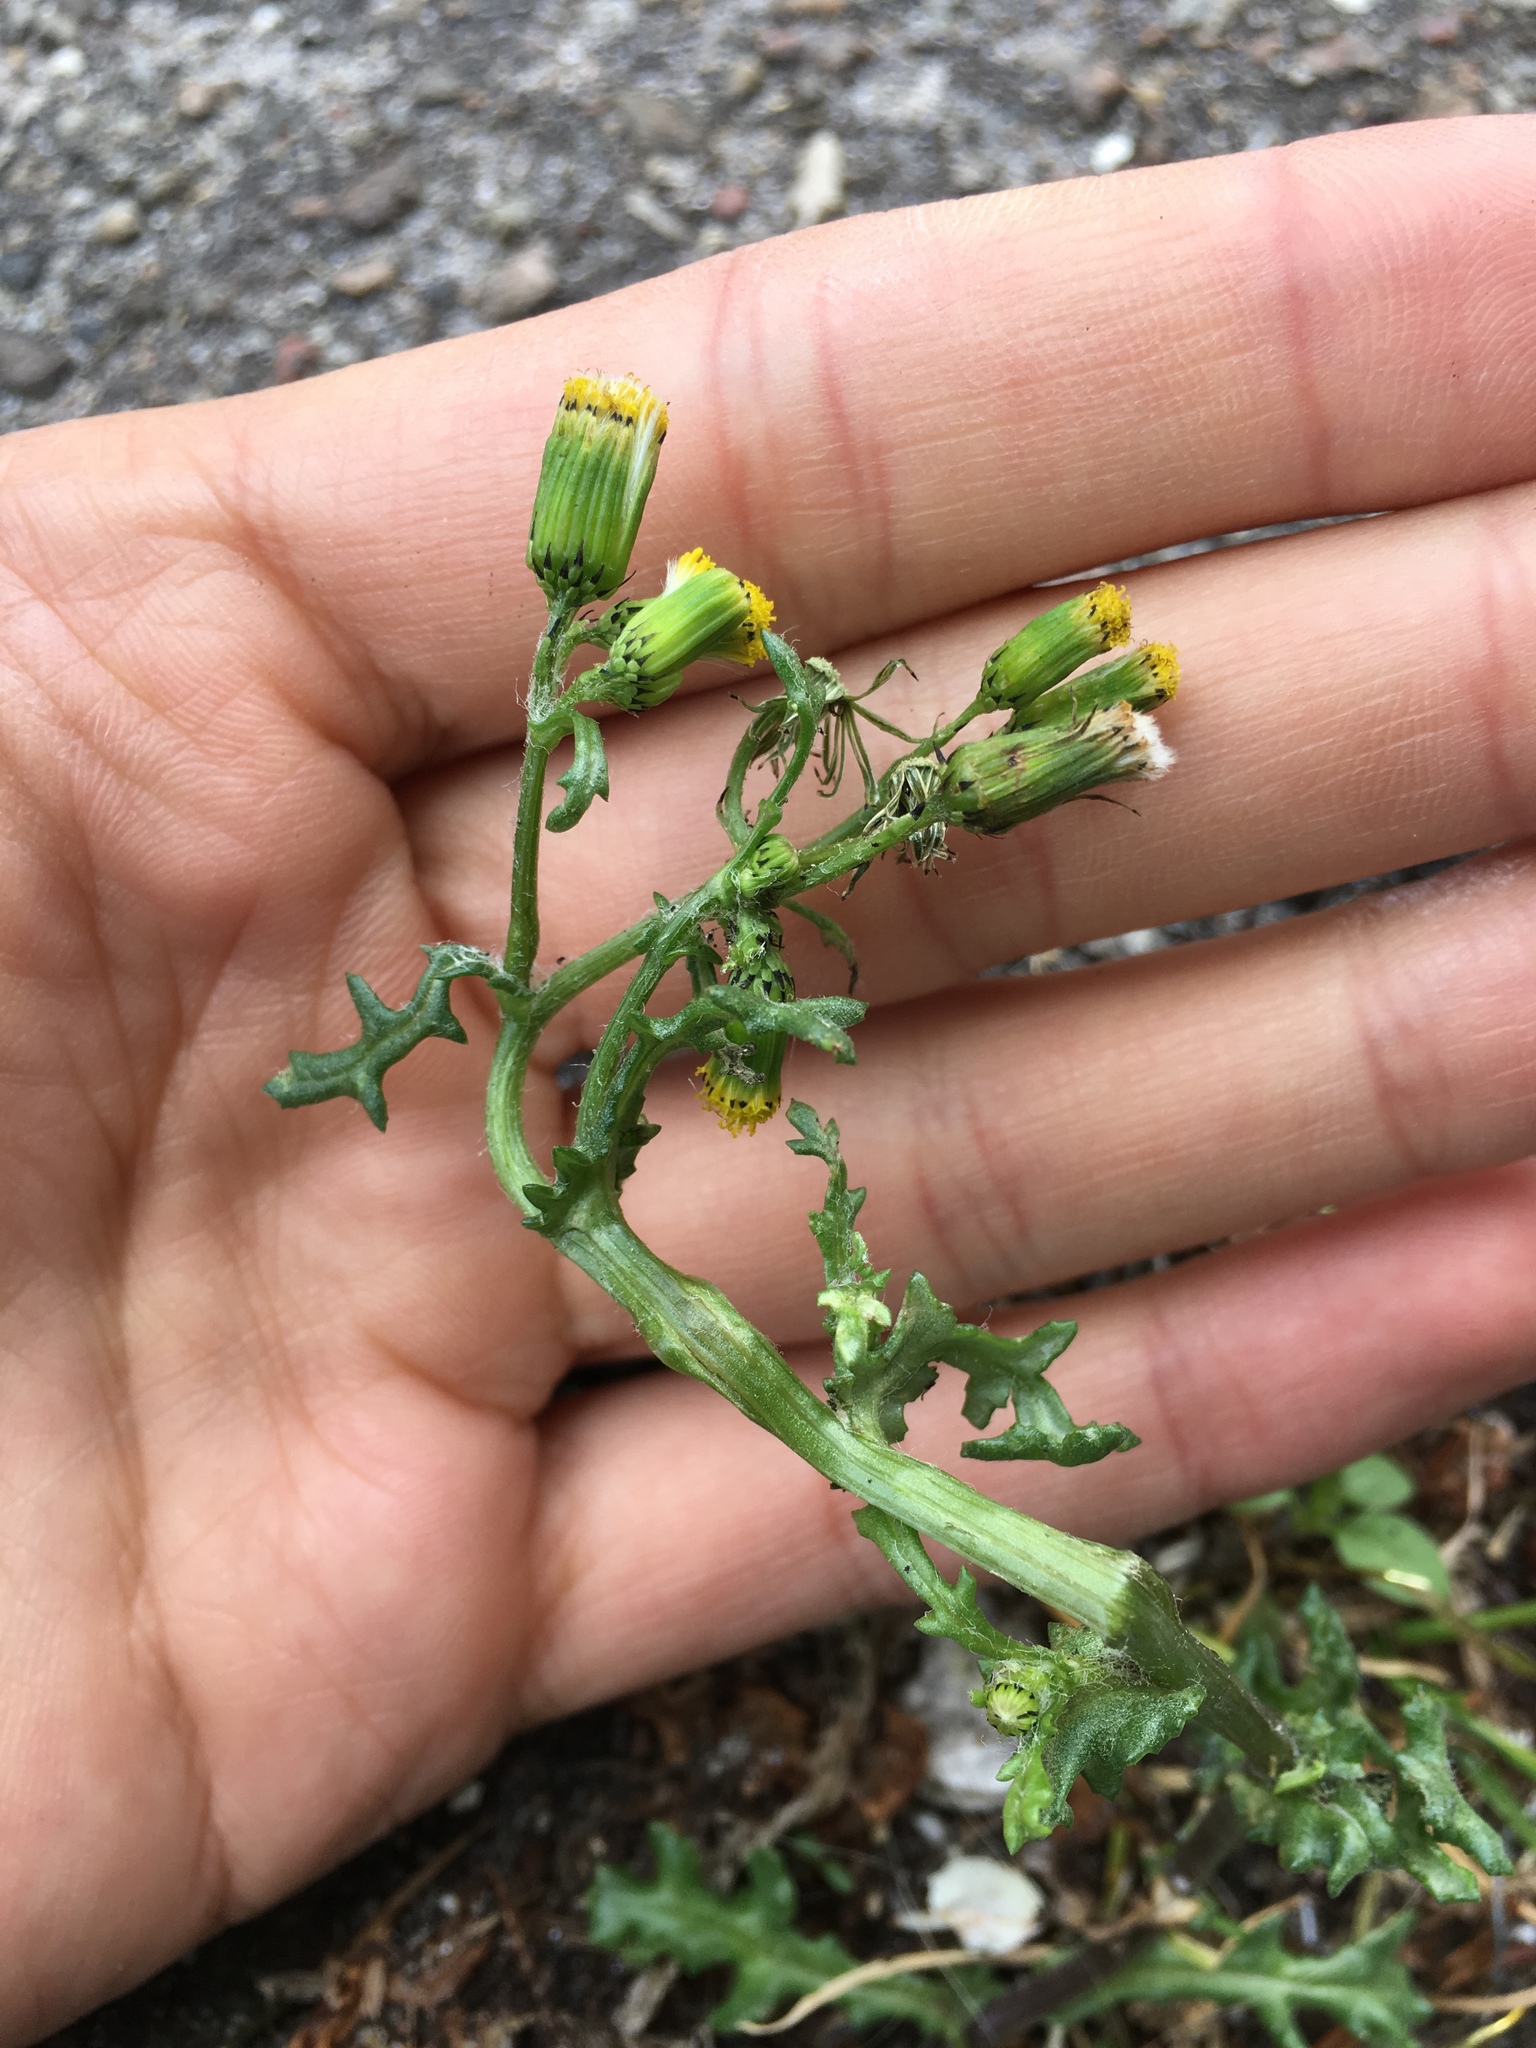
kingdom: Plantae
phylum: Tracheophyta
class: Magnoliopsida
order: Asterales
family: Asteraceae
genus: Senecio
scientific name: Senecio vulgaris
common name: Old-man-in-the-spring
